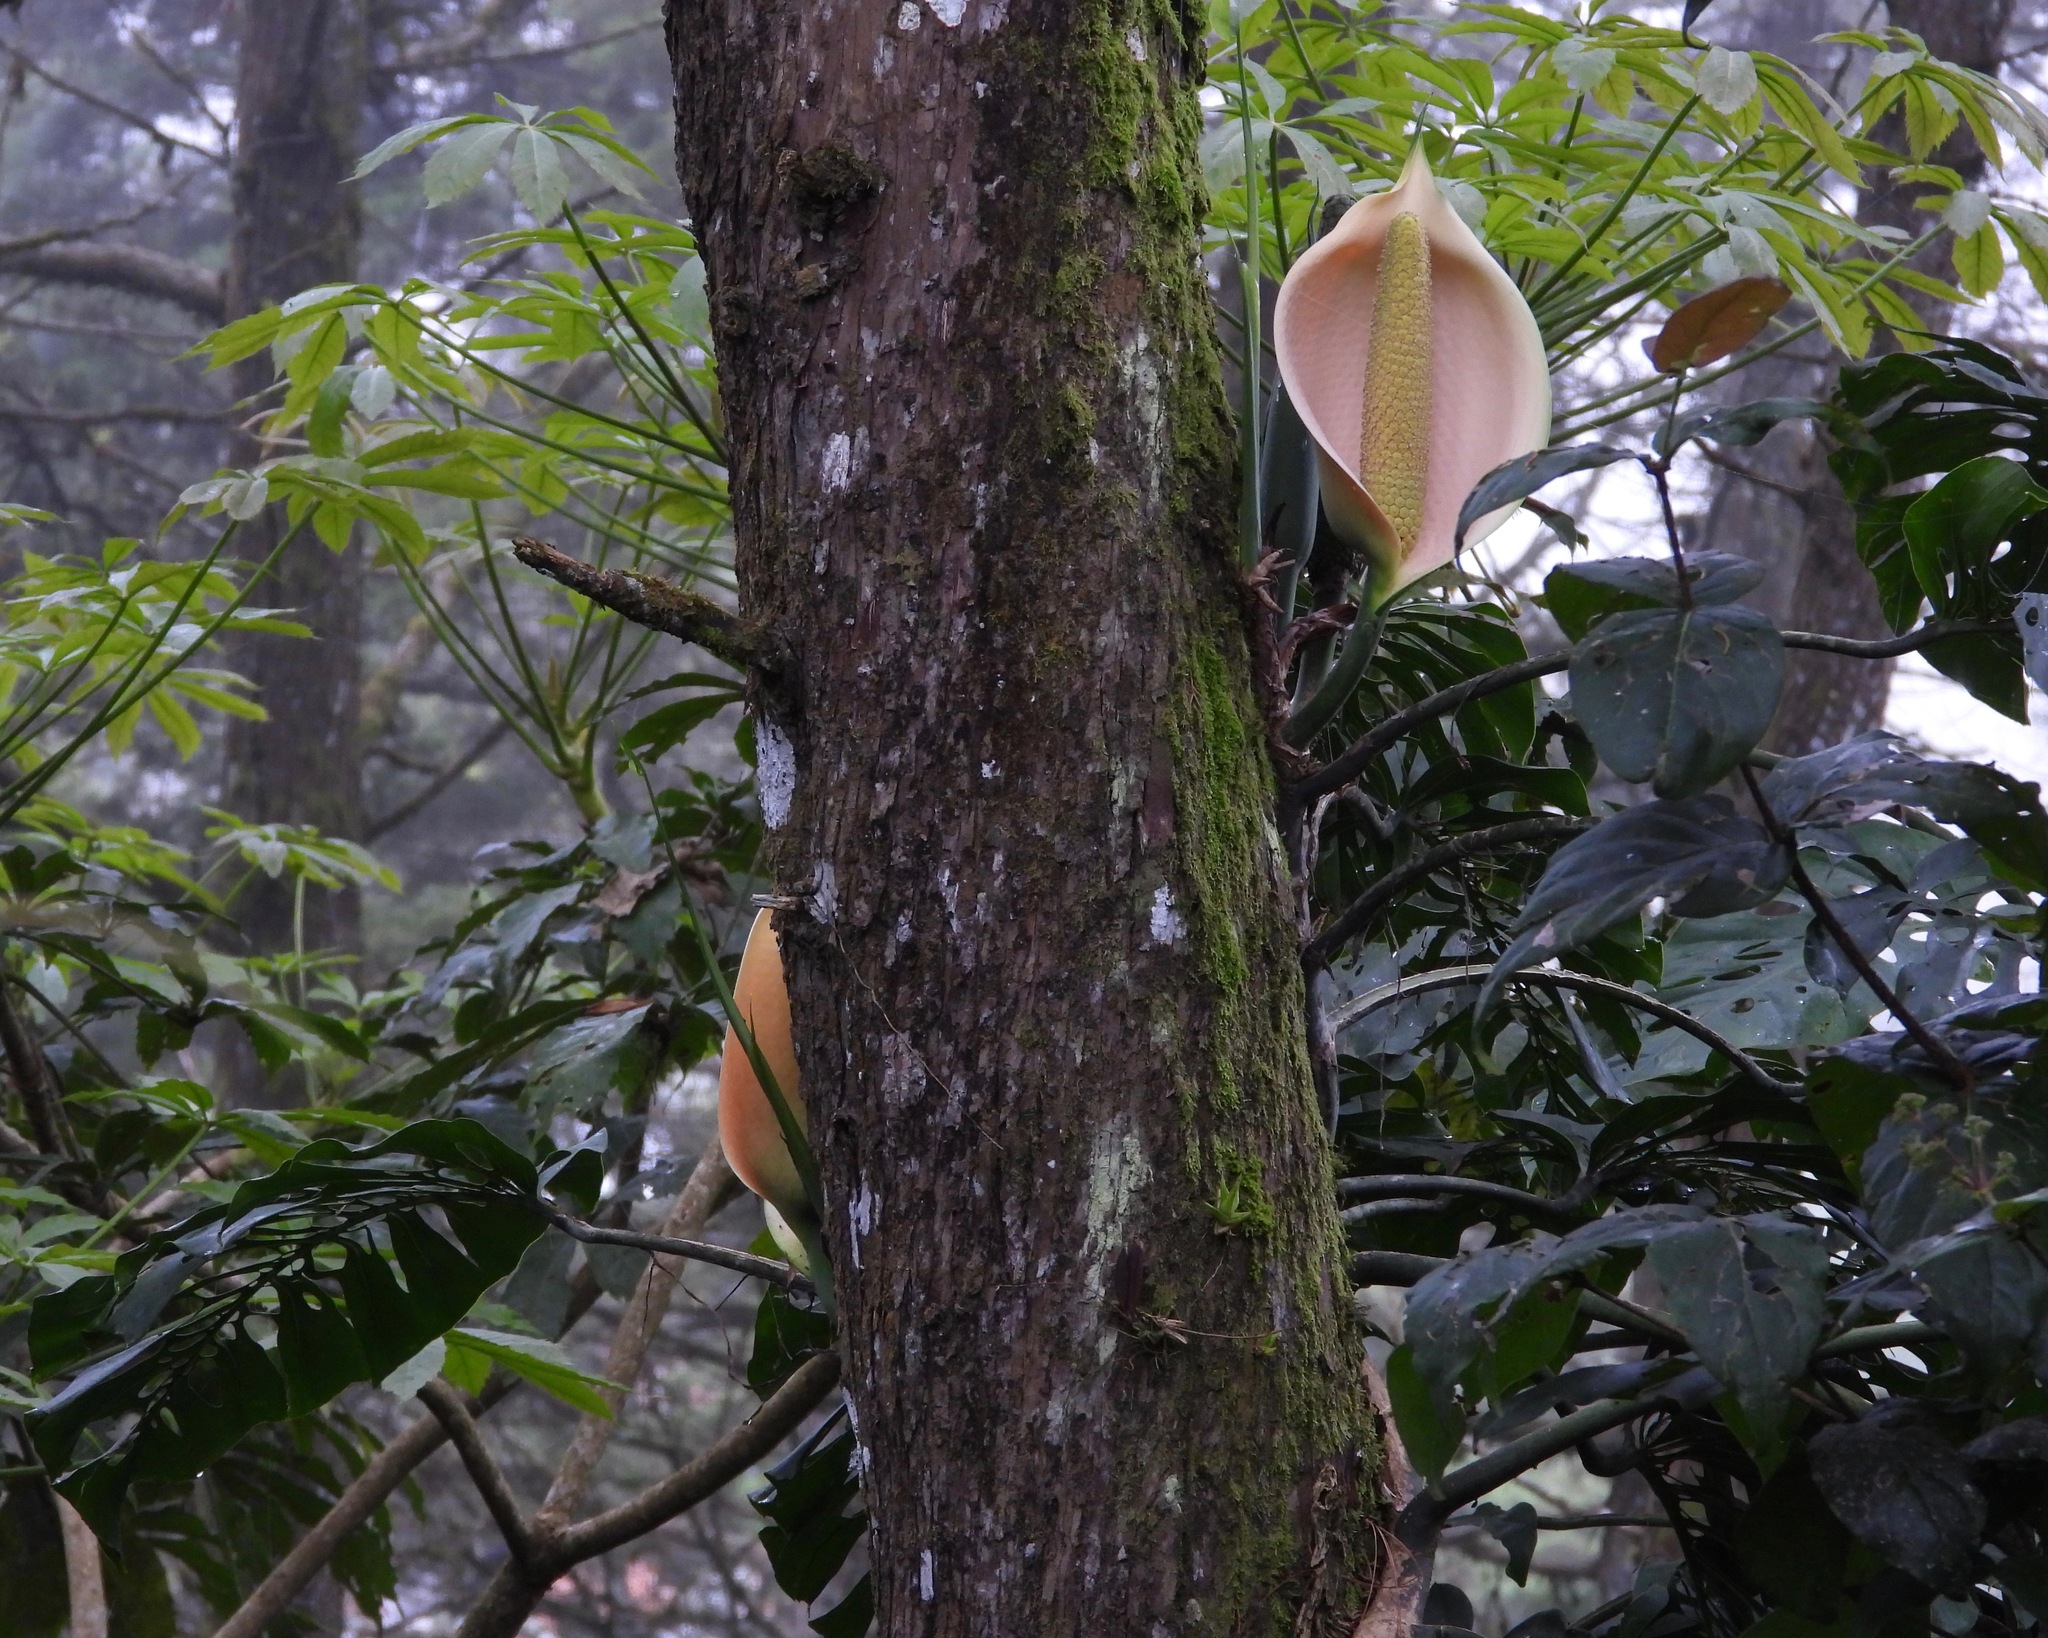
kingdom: Plantae
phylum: Tracheophyta
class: Liliopsida
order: Alismatales
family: Araceae
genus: Monstera
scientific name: Monstera siltepecana
